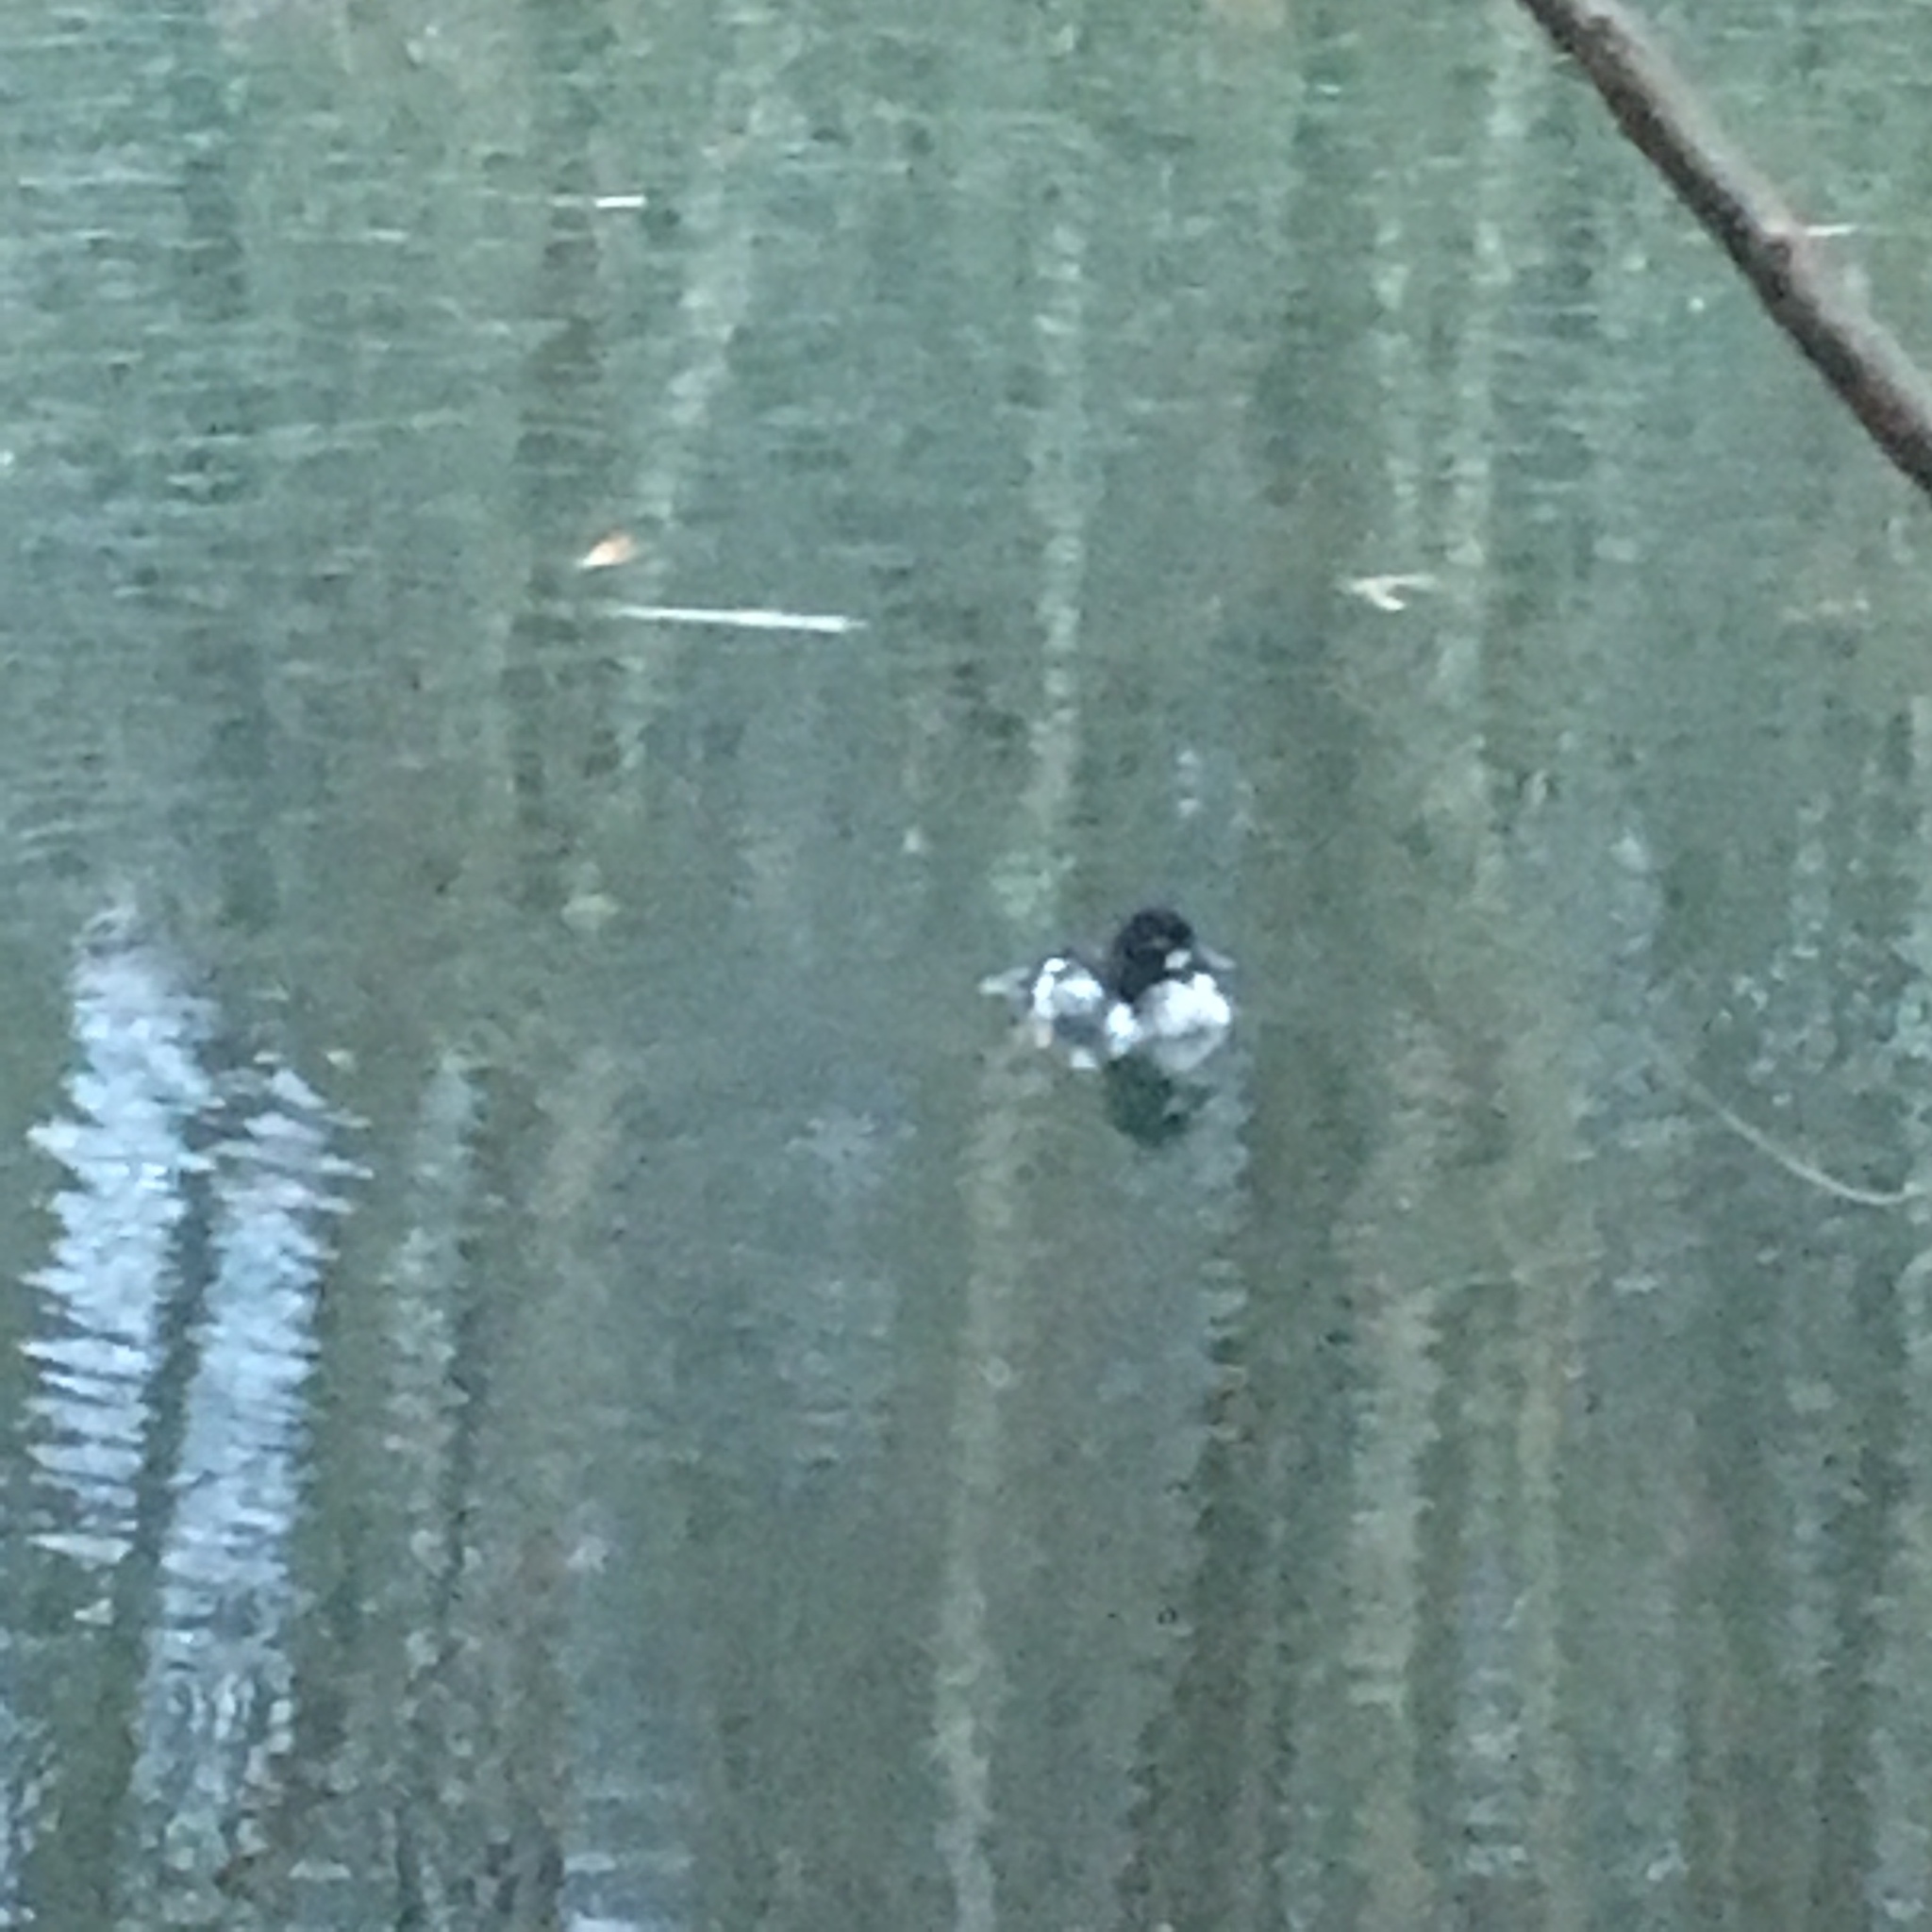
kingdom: Animalia
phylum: Chordata
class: Aves
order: Anseriformes
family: Anatidae
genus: Bucephala
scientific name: Bucephala clangula
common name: Common goldeneye
